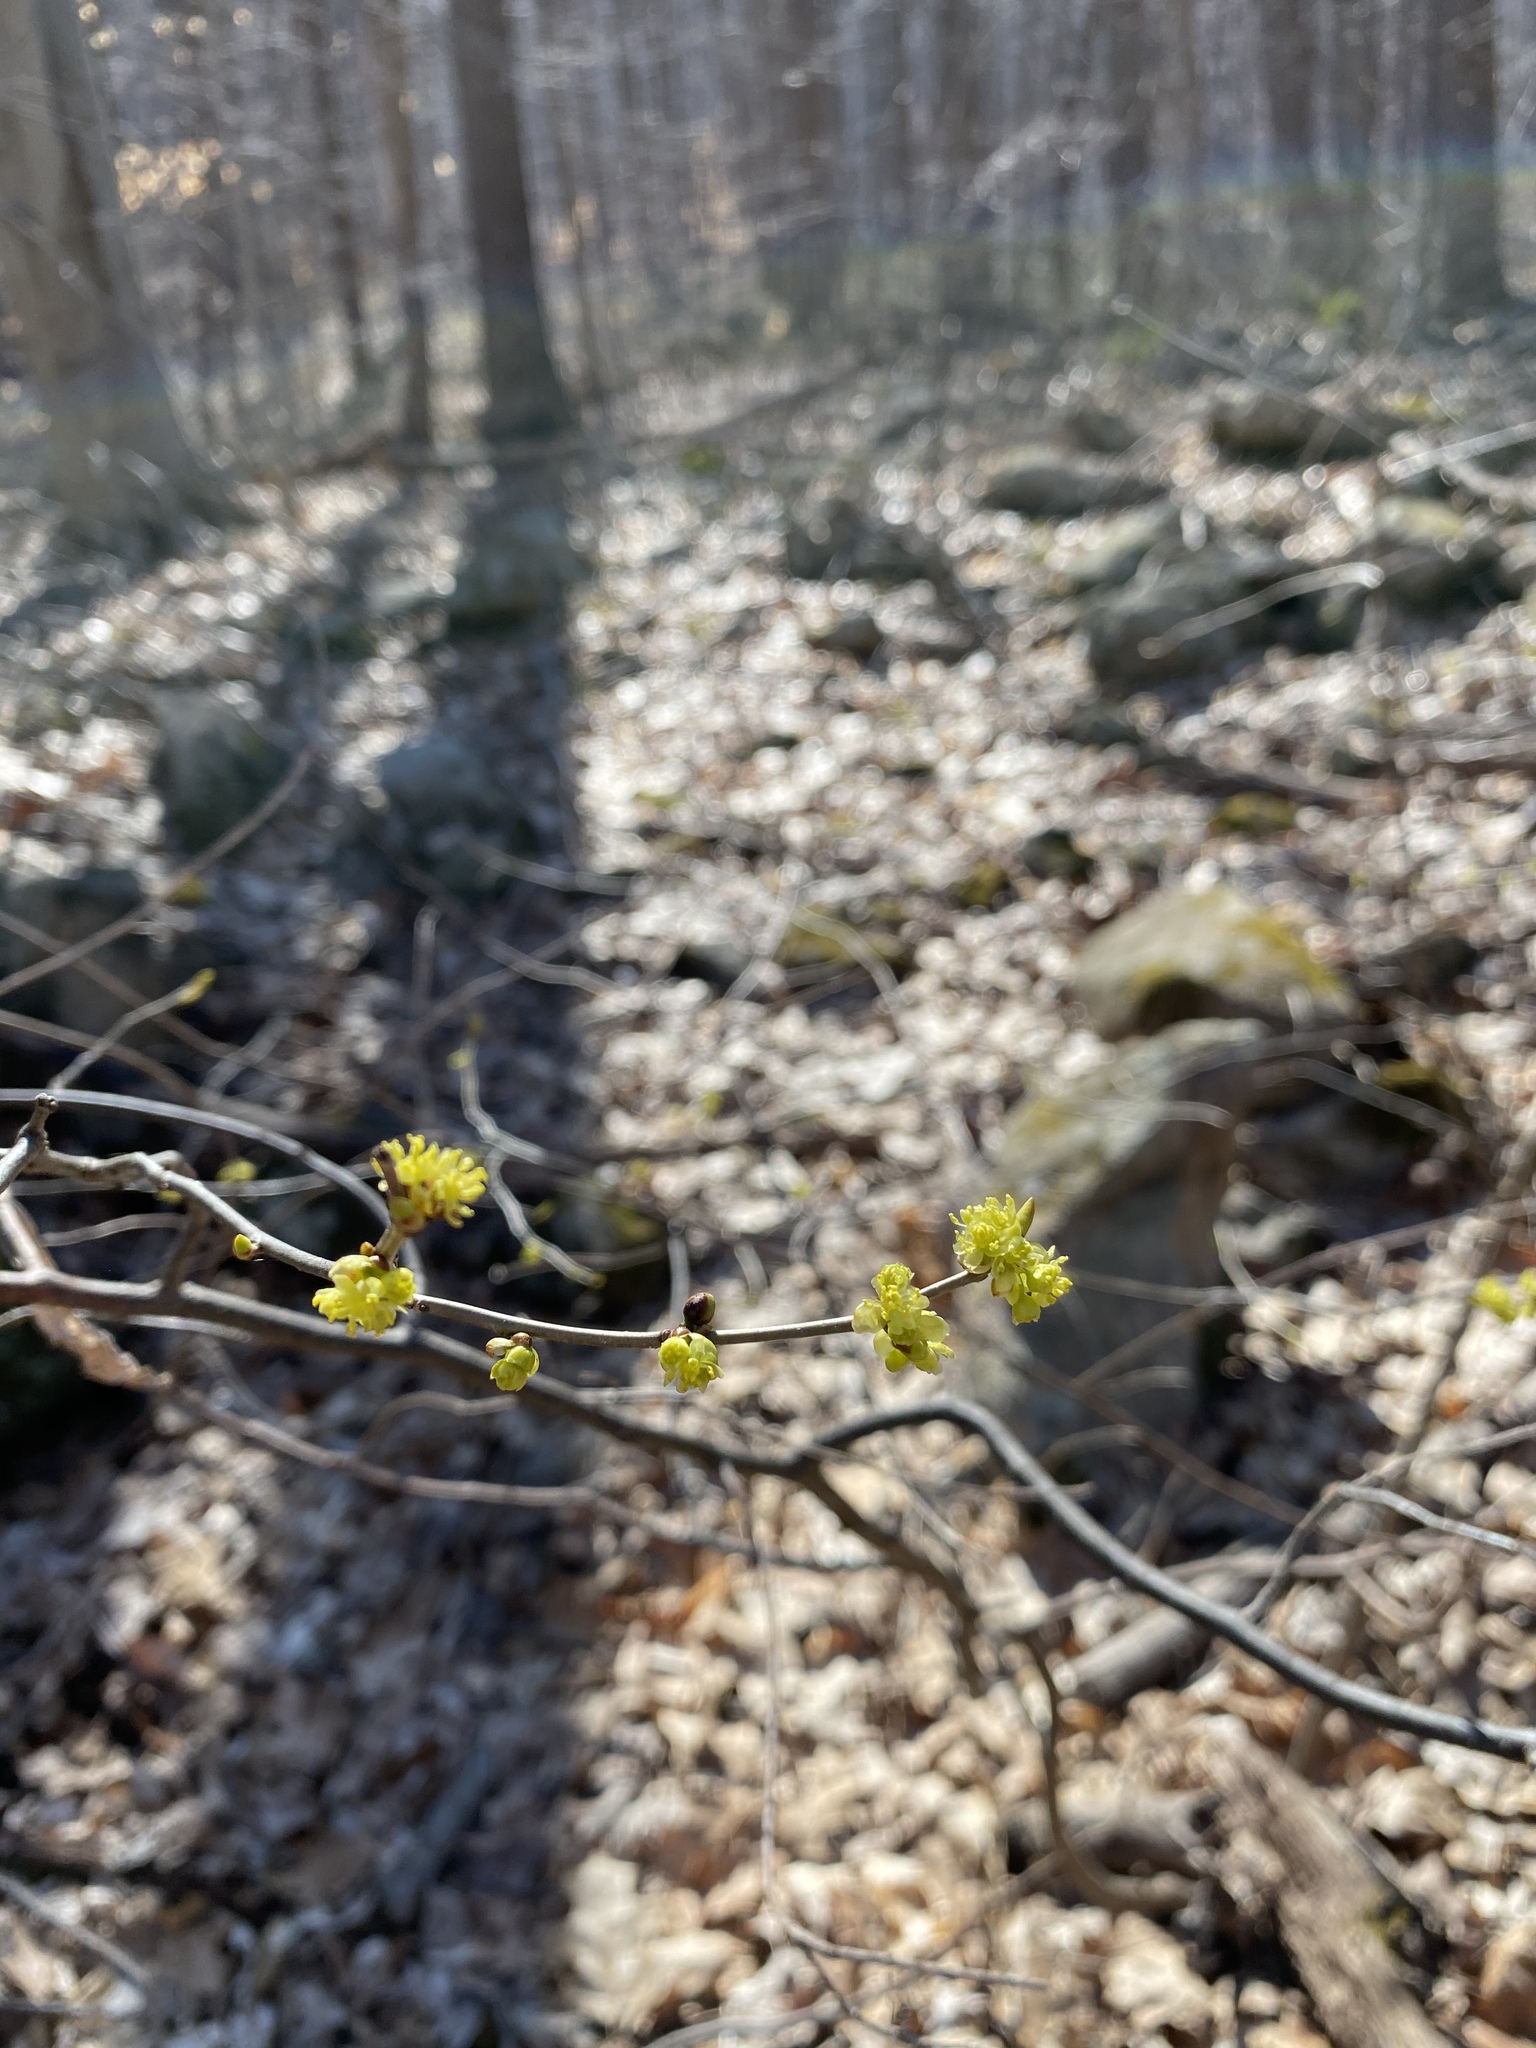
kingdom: Plantae
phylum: Tracheophyta
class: Magnoliopsida
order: Laurales
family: Lauraceae
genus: Lindera
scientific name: Lindera benzoin
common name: Spicebush
